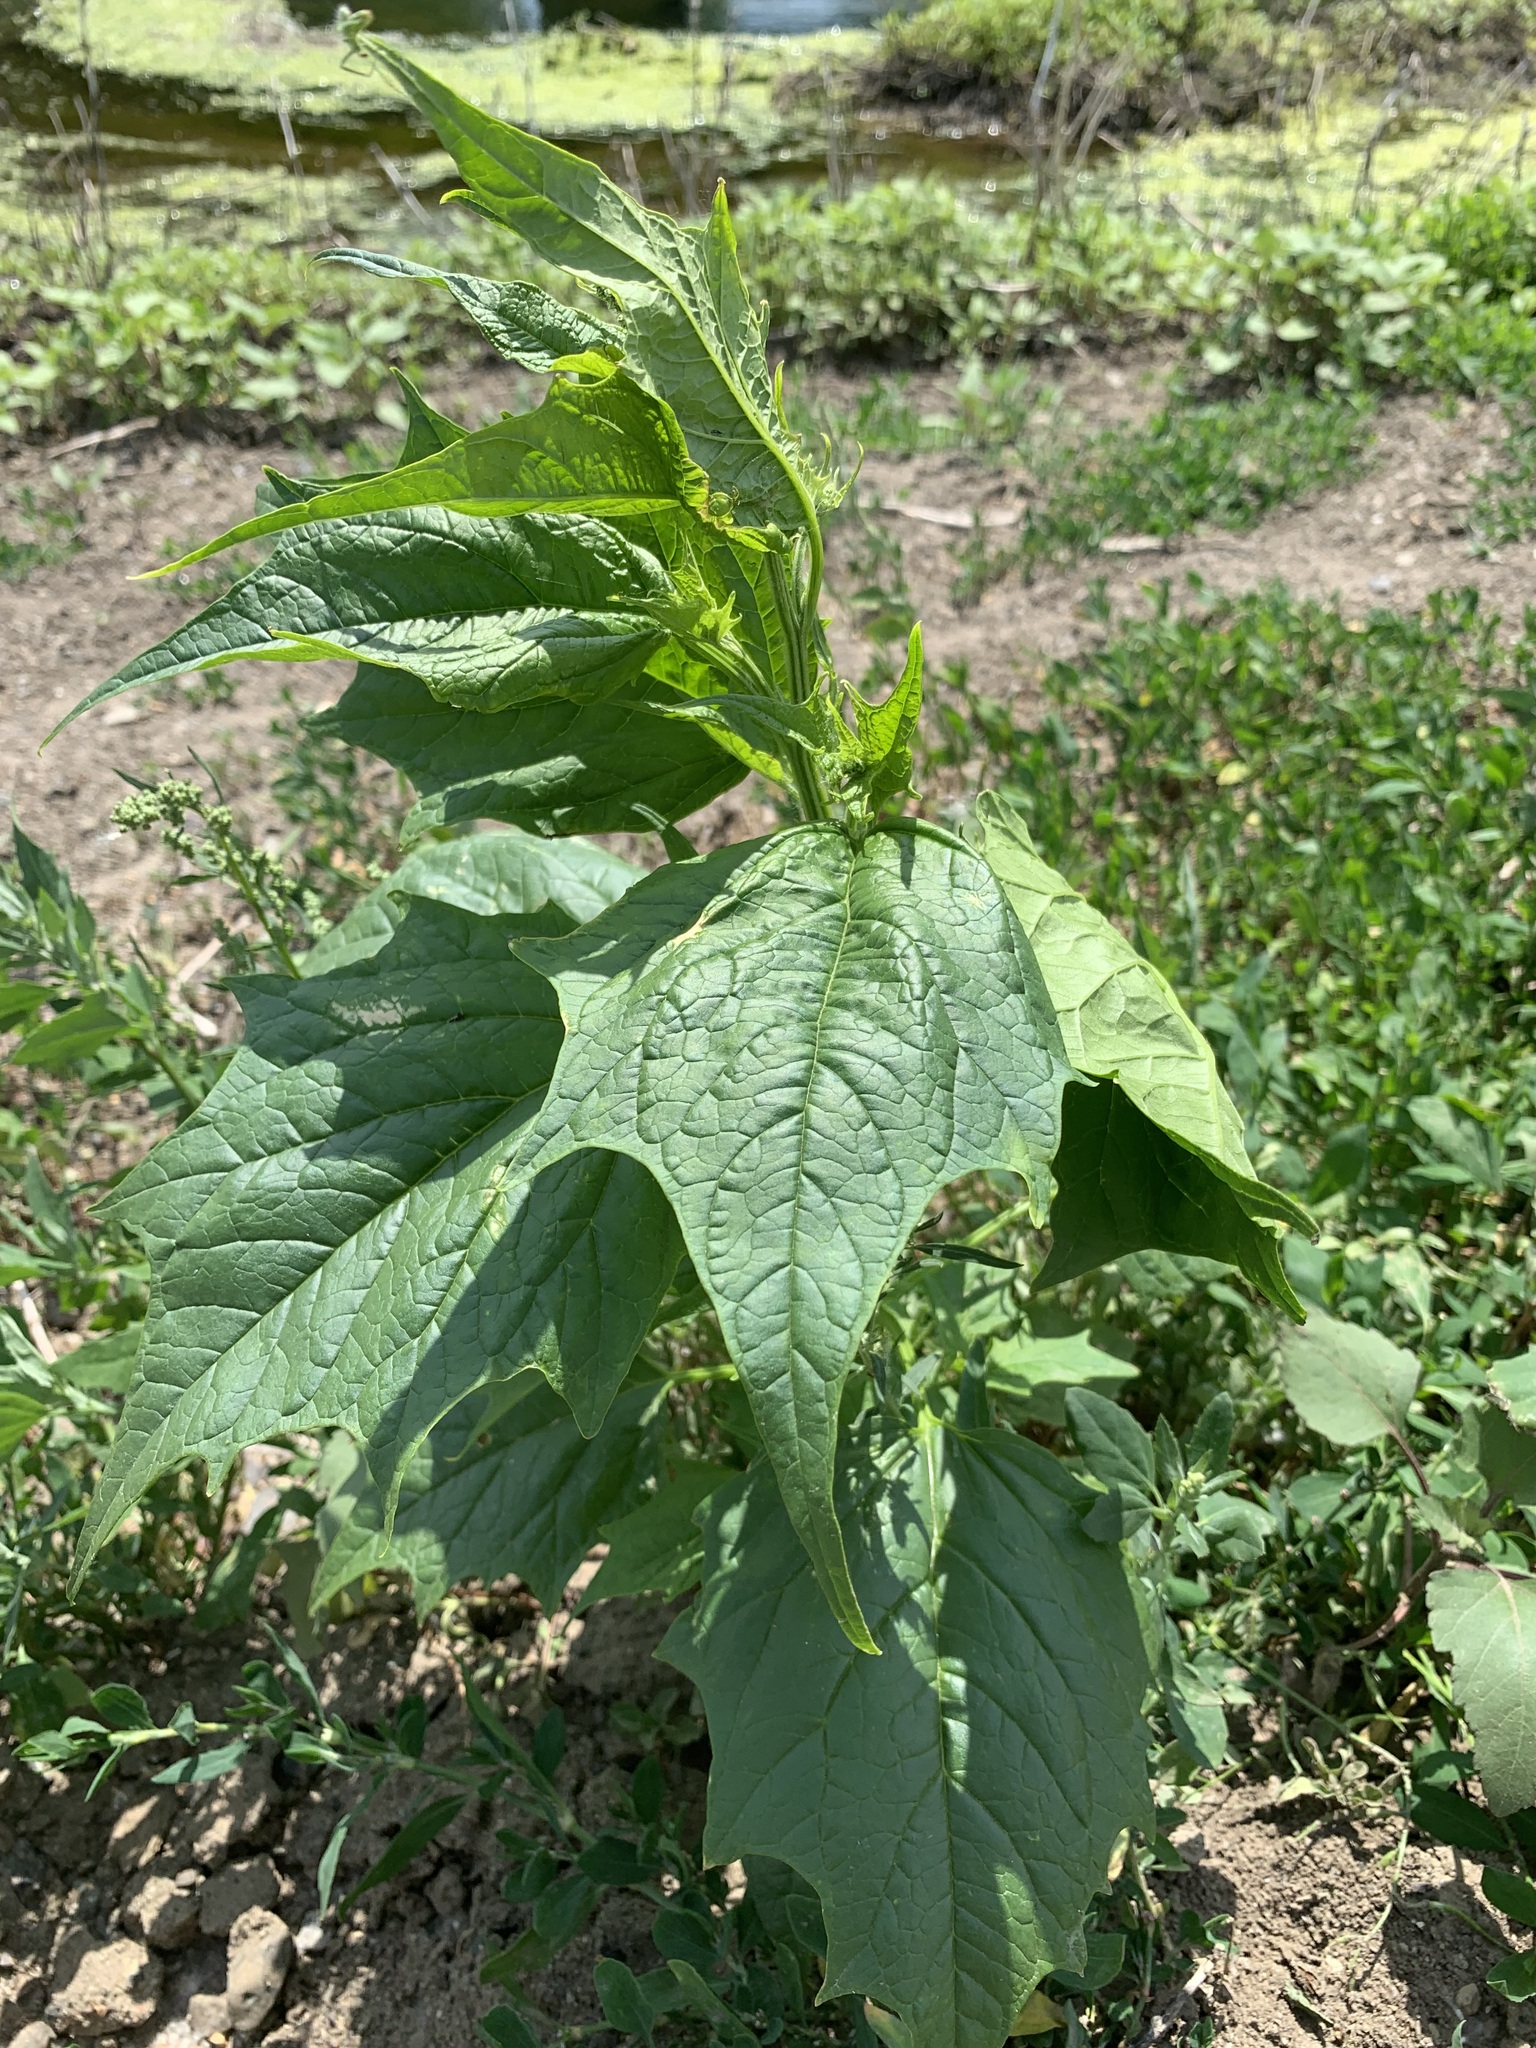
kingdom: Plantae
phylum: Tracheophyta
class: Magnoliopsida
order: Caryophyllales
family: Amaranthaceae
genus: Chenopodiastrum
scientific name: Chenopodiastrum hybridum
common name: Mapleleaf goosefoot
